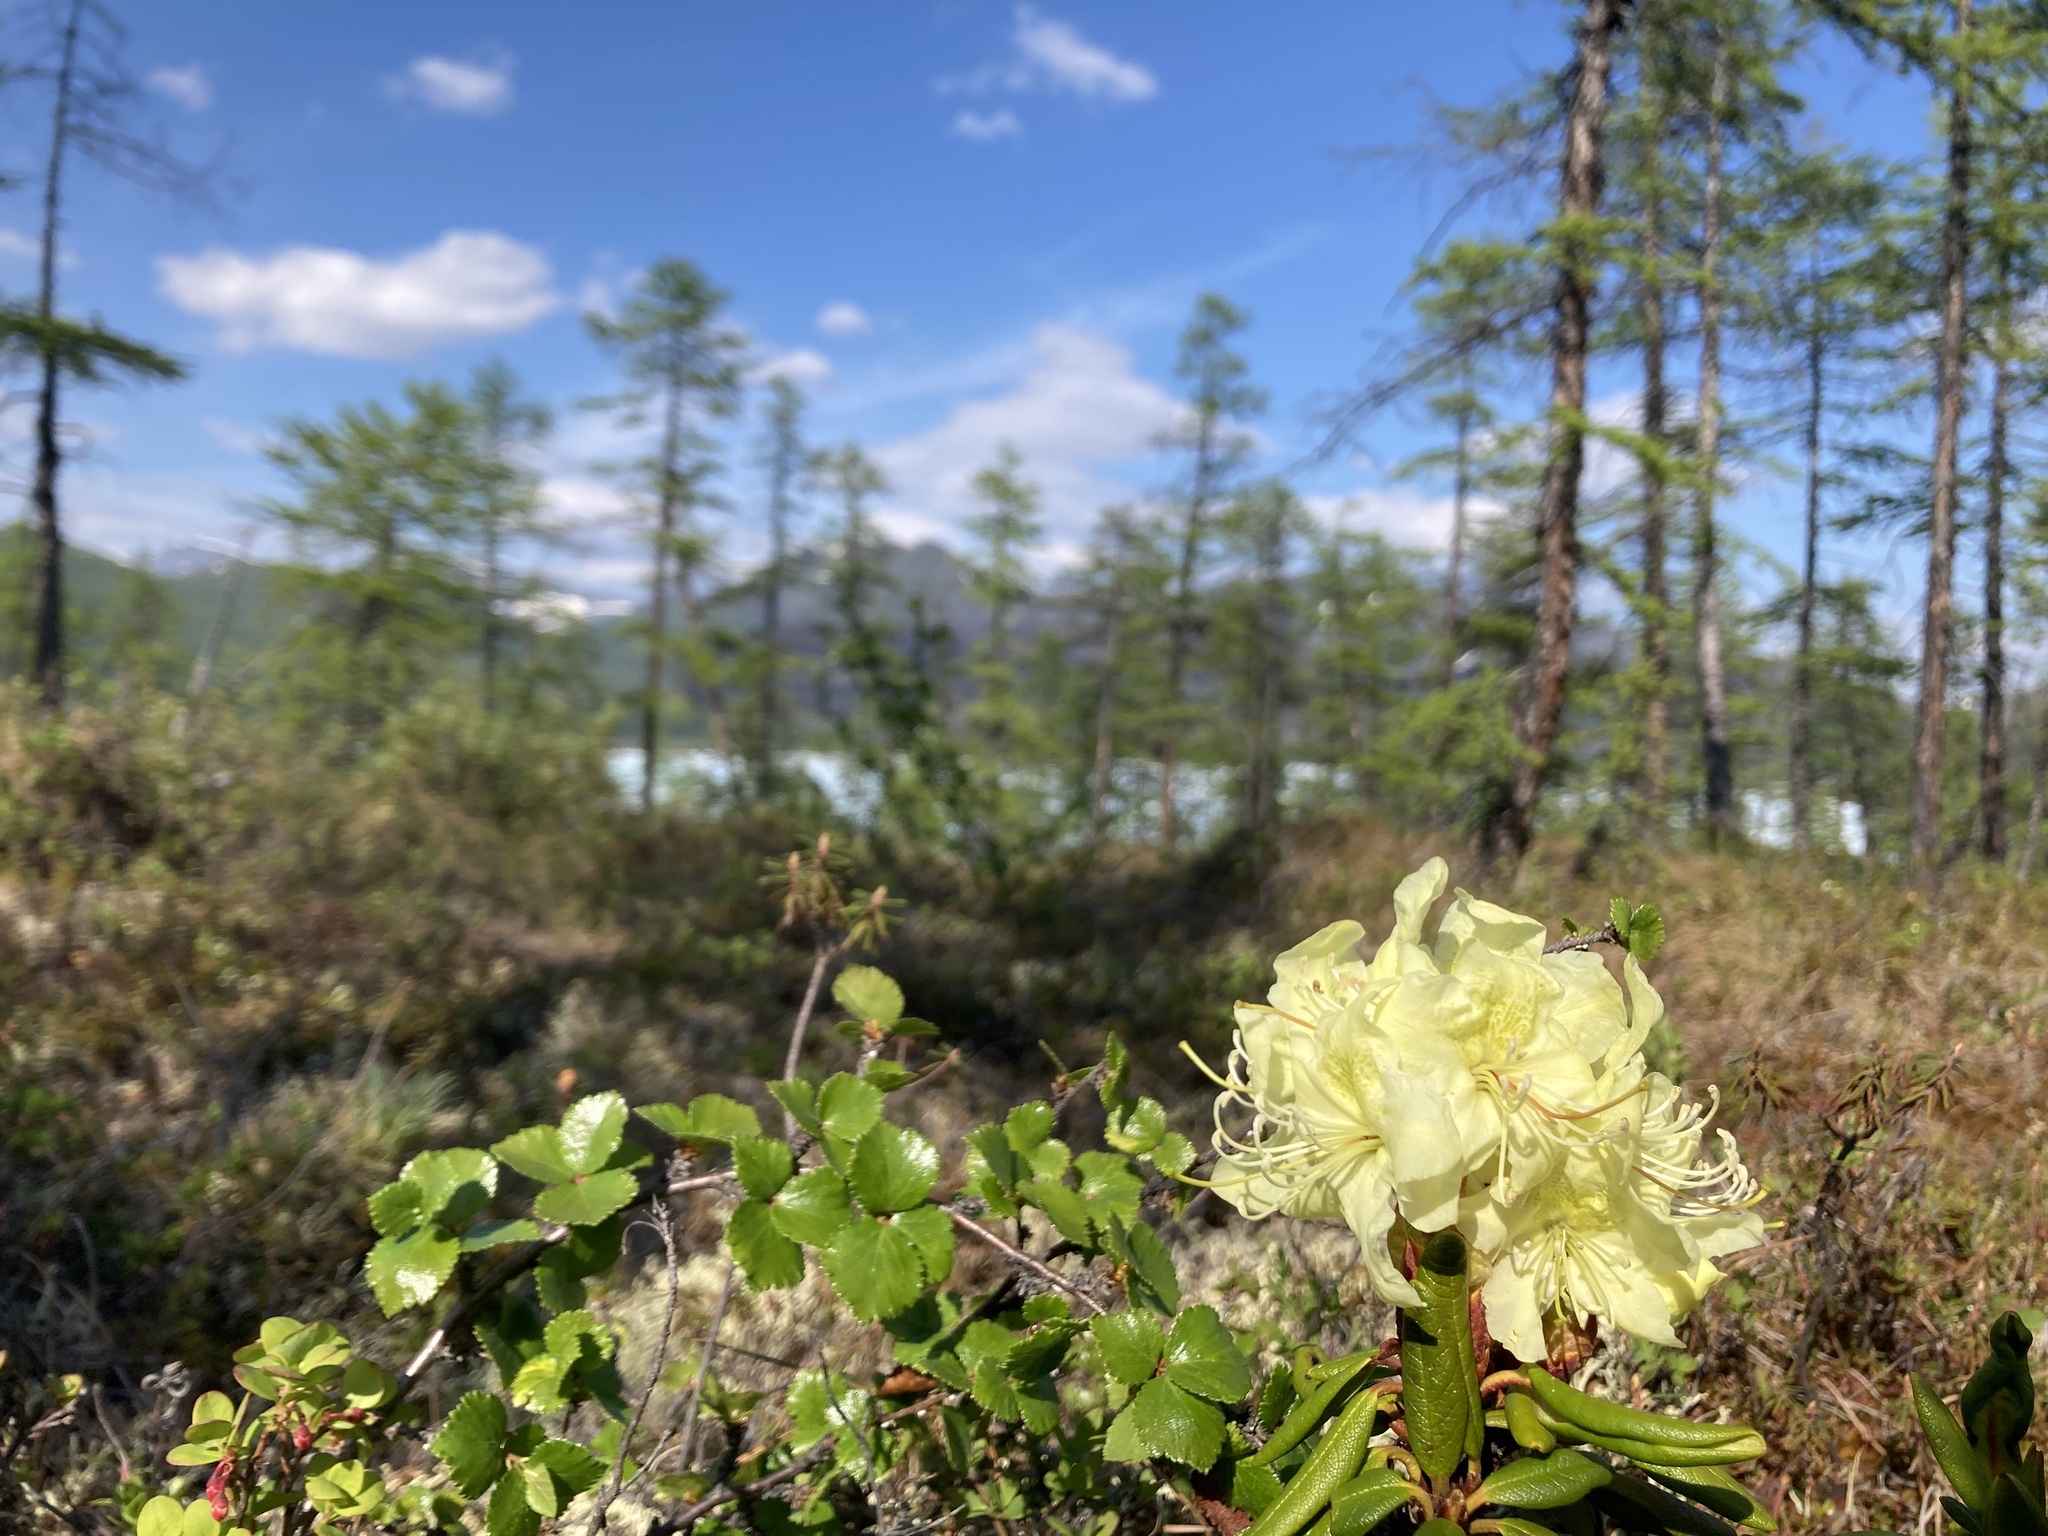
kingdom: Plantae
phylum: Tracheophyta
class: Magnoliopsida
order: Ericales
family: Ericaceae
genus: Rhododendron
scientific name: Rhododendron aureum
